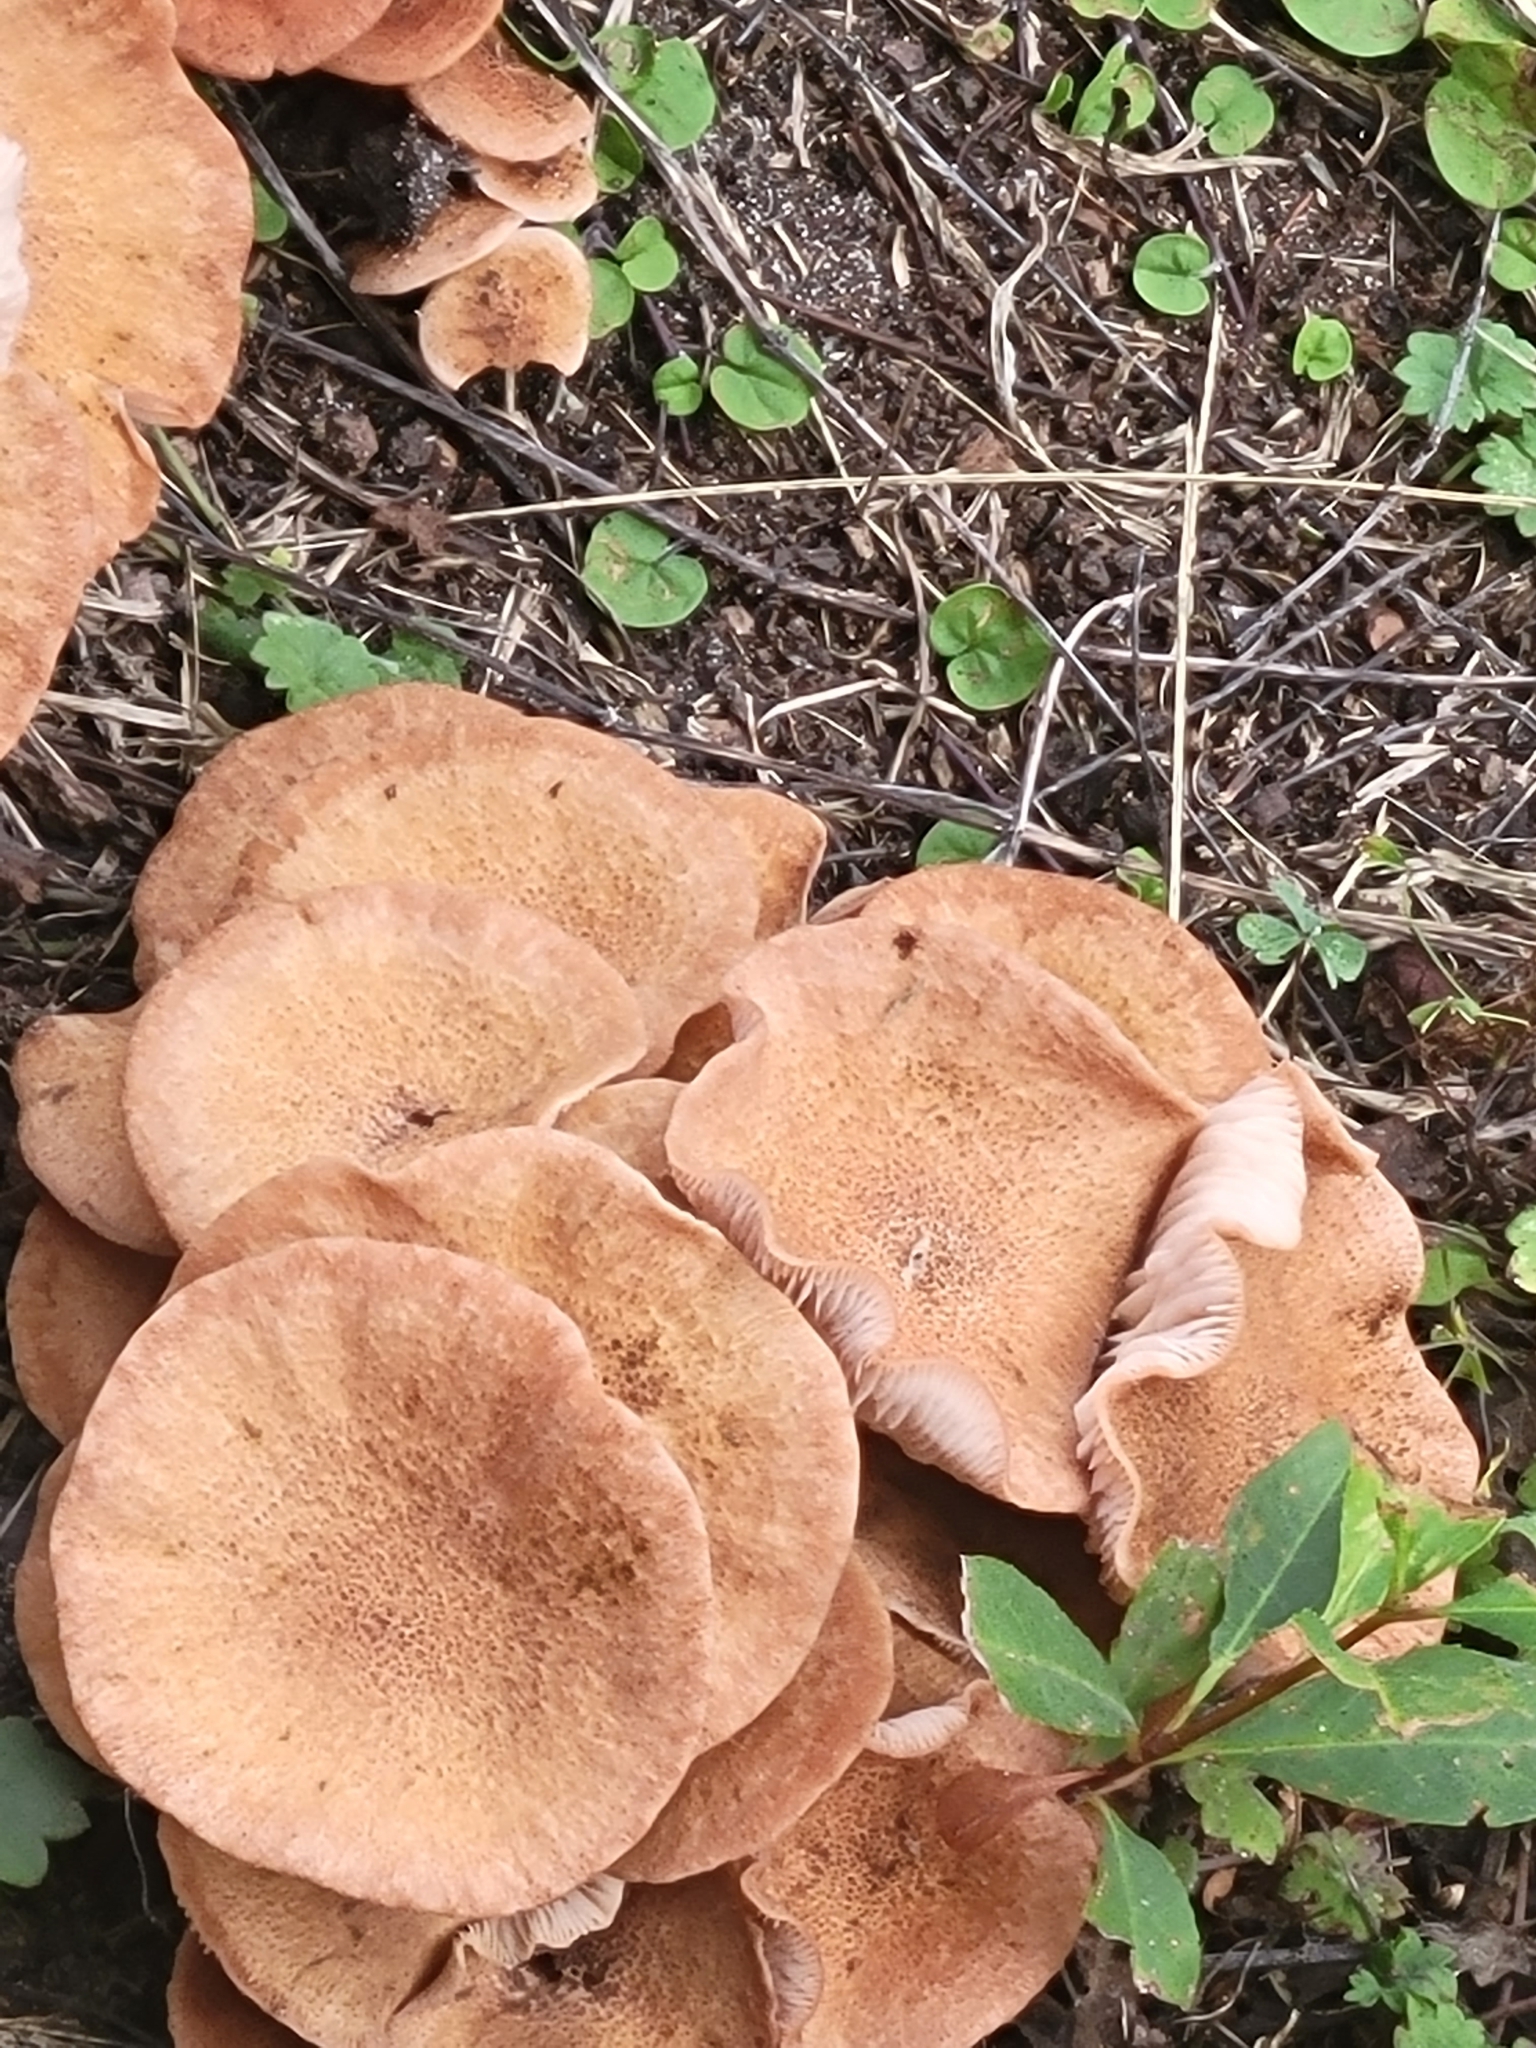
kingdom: Fungi
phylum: Basidiomycota
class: Agaricomycetes
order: Agaricales
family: Physalacriaceae
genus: Desarmillaria
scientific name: Desarmillaria caespitosa
